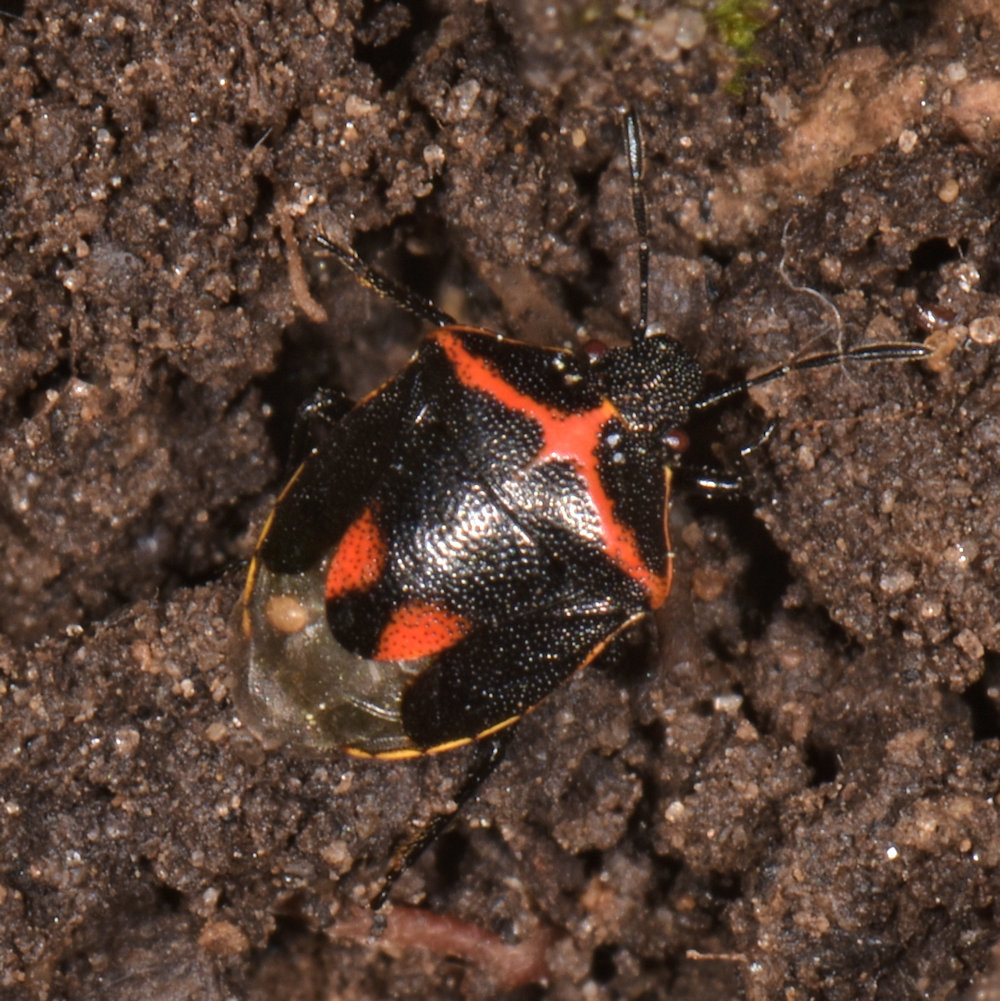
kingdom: Animalia
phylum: Arthropoda
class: Insecta
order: Hemiptera
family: Pentatomidae
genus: Cosmopepla
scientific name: Cosmopepla lintneriana
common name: Twice-stabbed stink bug
